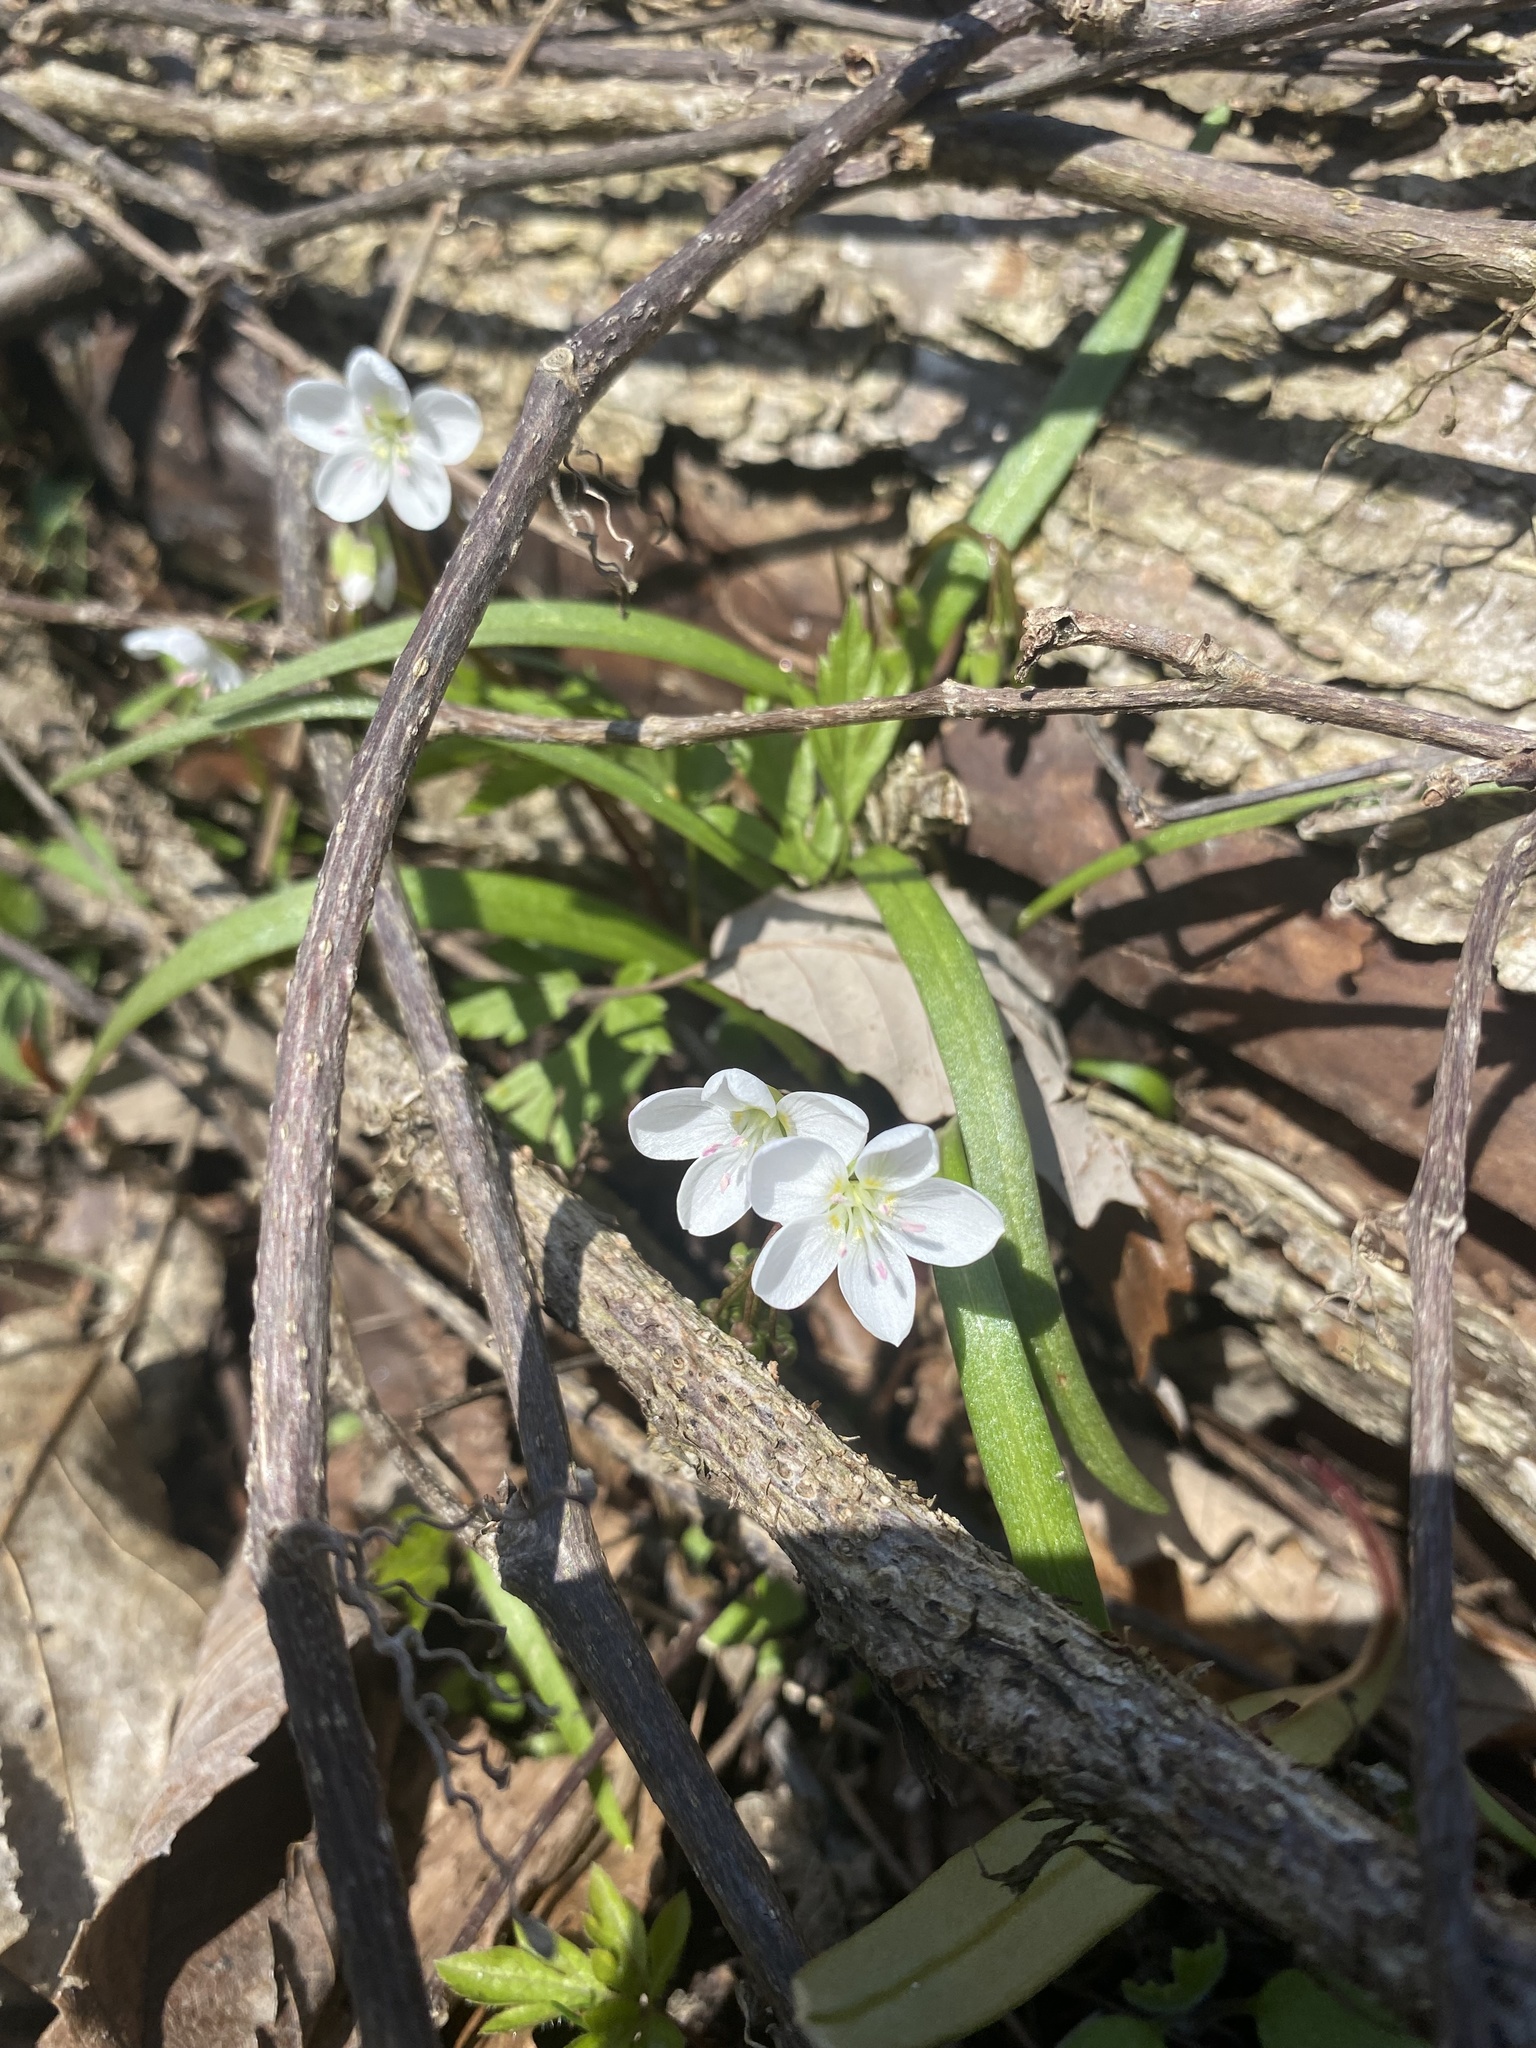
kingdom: Plantae
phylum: Tracheophyta
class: Magnoliopsida
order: Caryophyllales
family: Montiaceae
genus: Claytonia
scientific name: Claytonia virginica
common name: Virginia springbeauty
